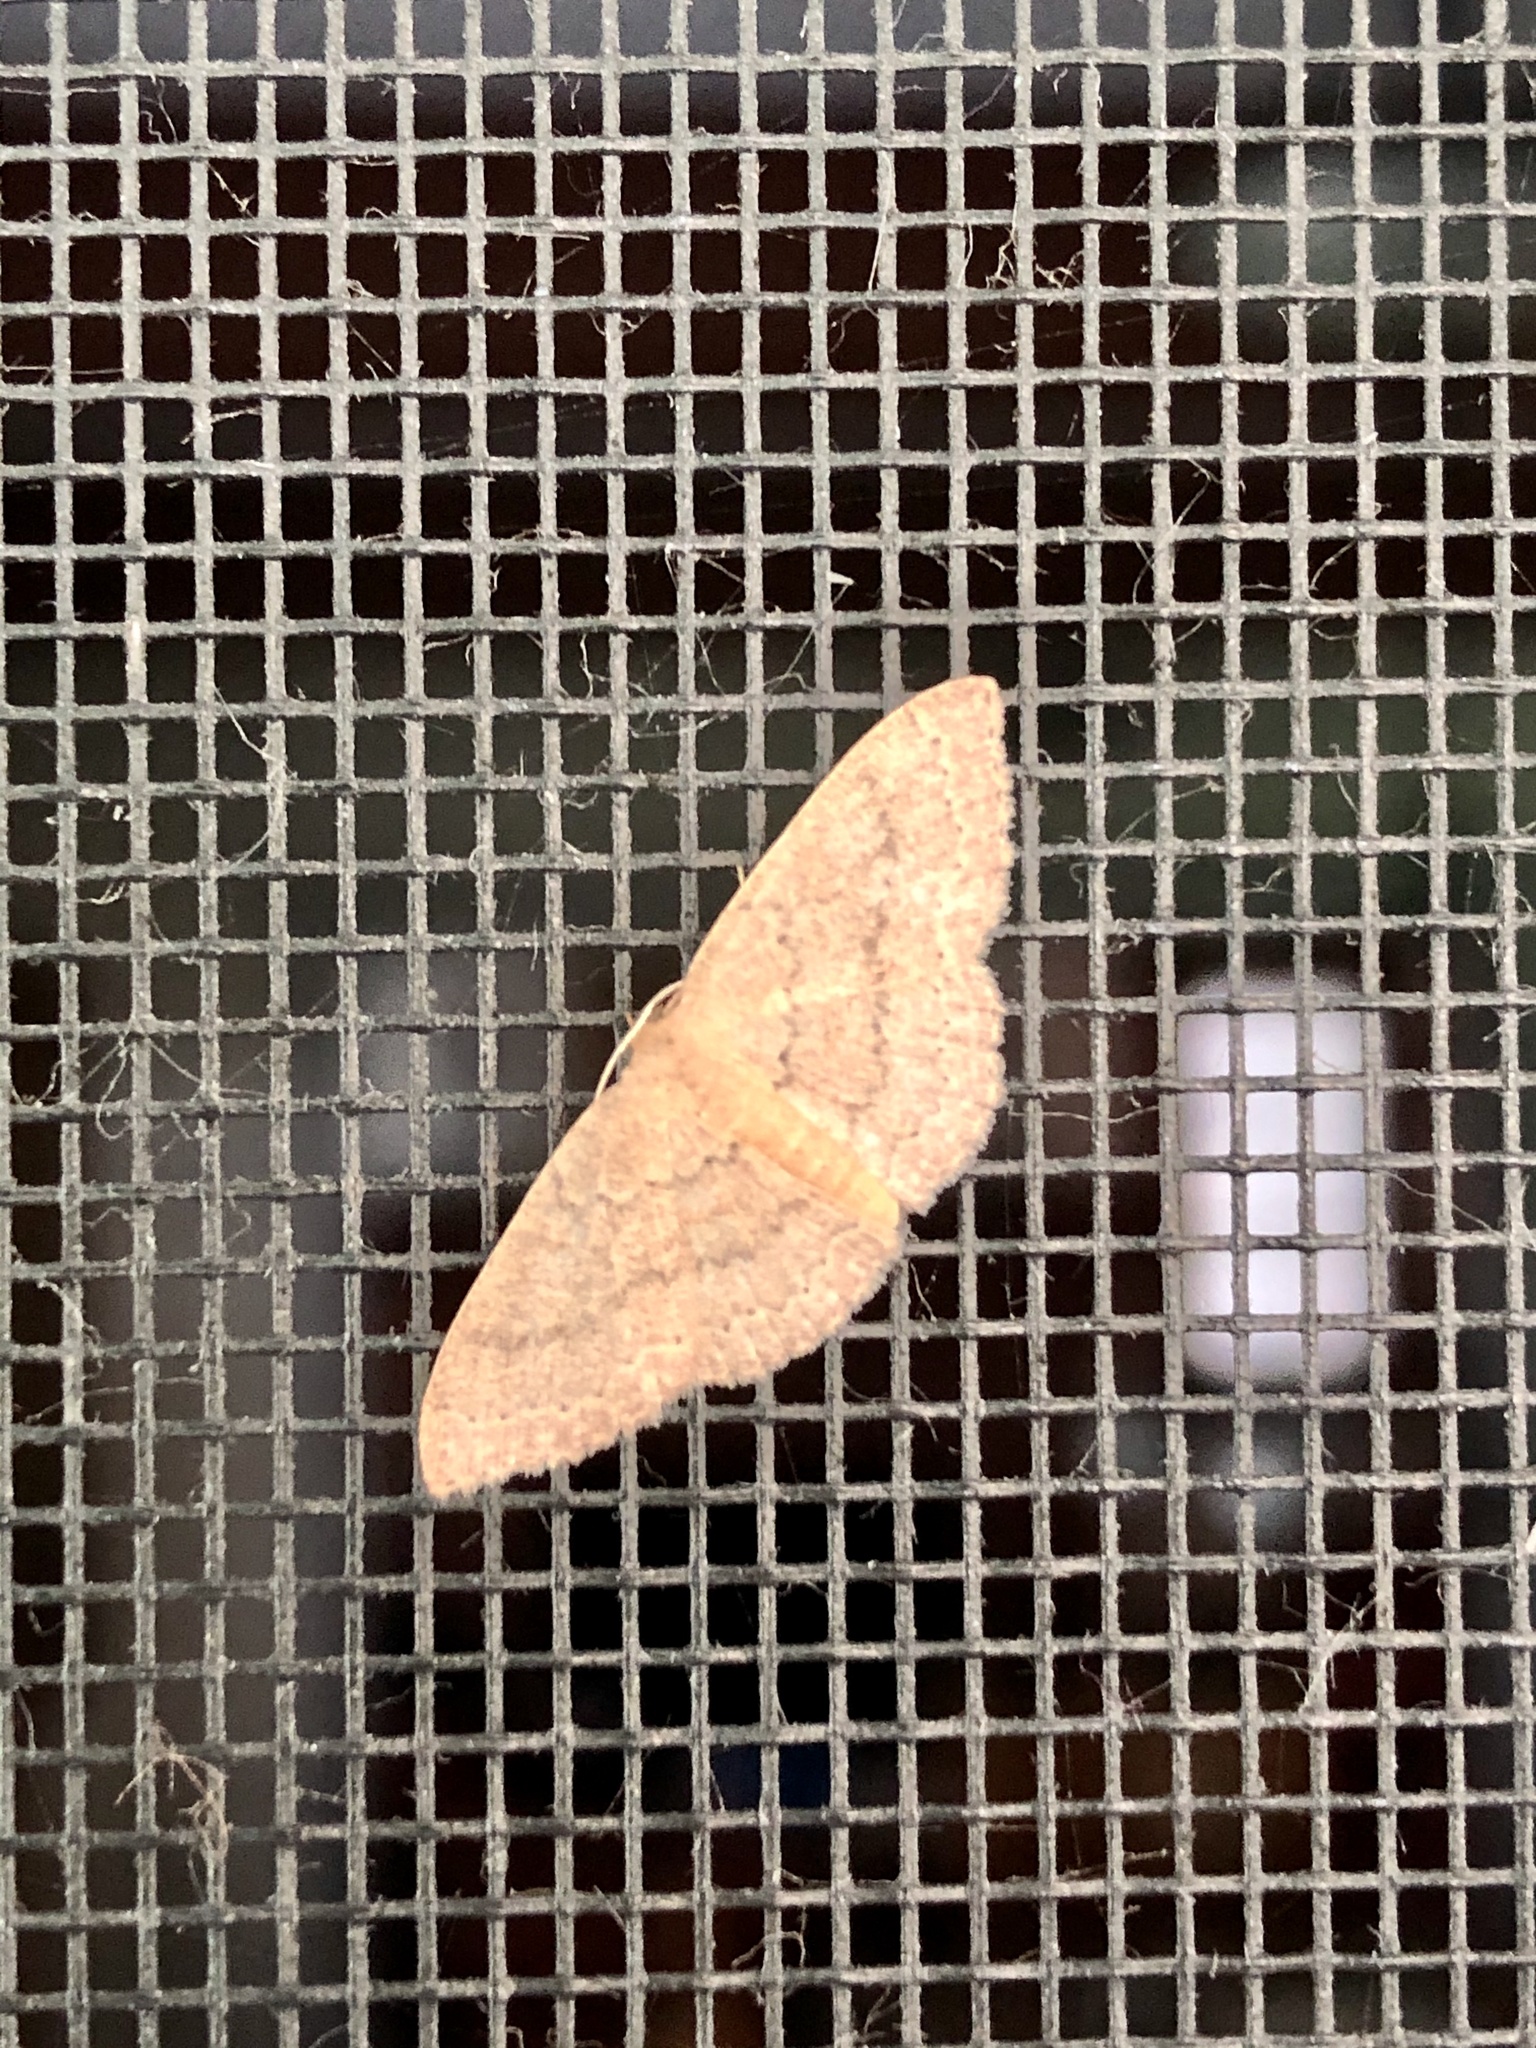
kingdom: Animalia
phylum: Arthropoda
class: Insecta
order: Lepidoptera
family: Geometridae
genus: Pleuroprucha
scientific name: Pleuroprucha insulsaria
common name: Common tan wave
